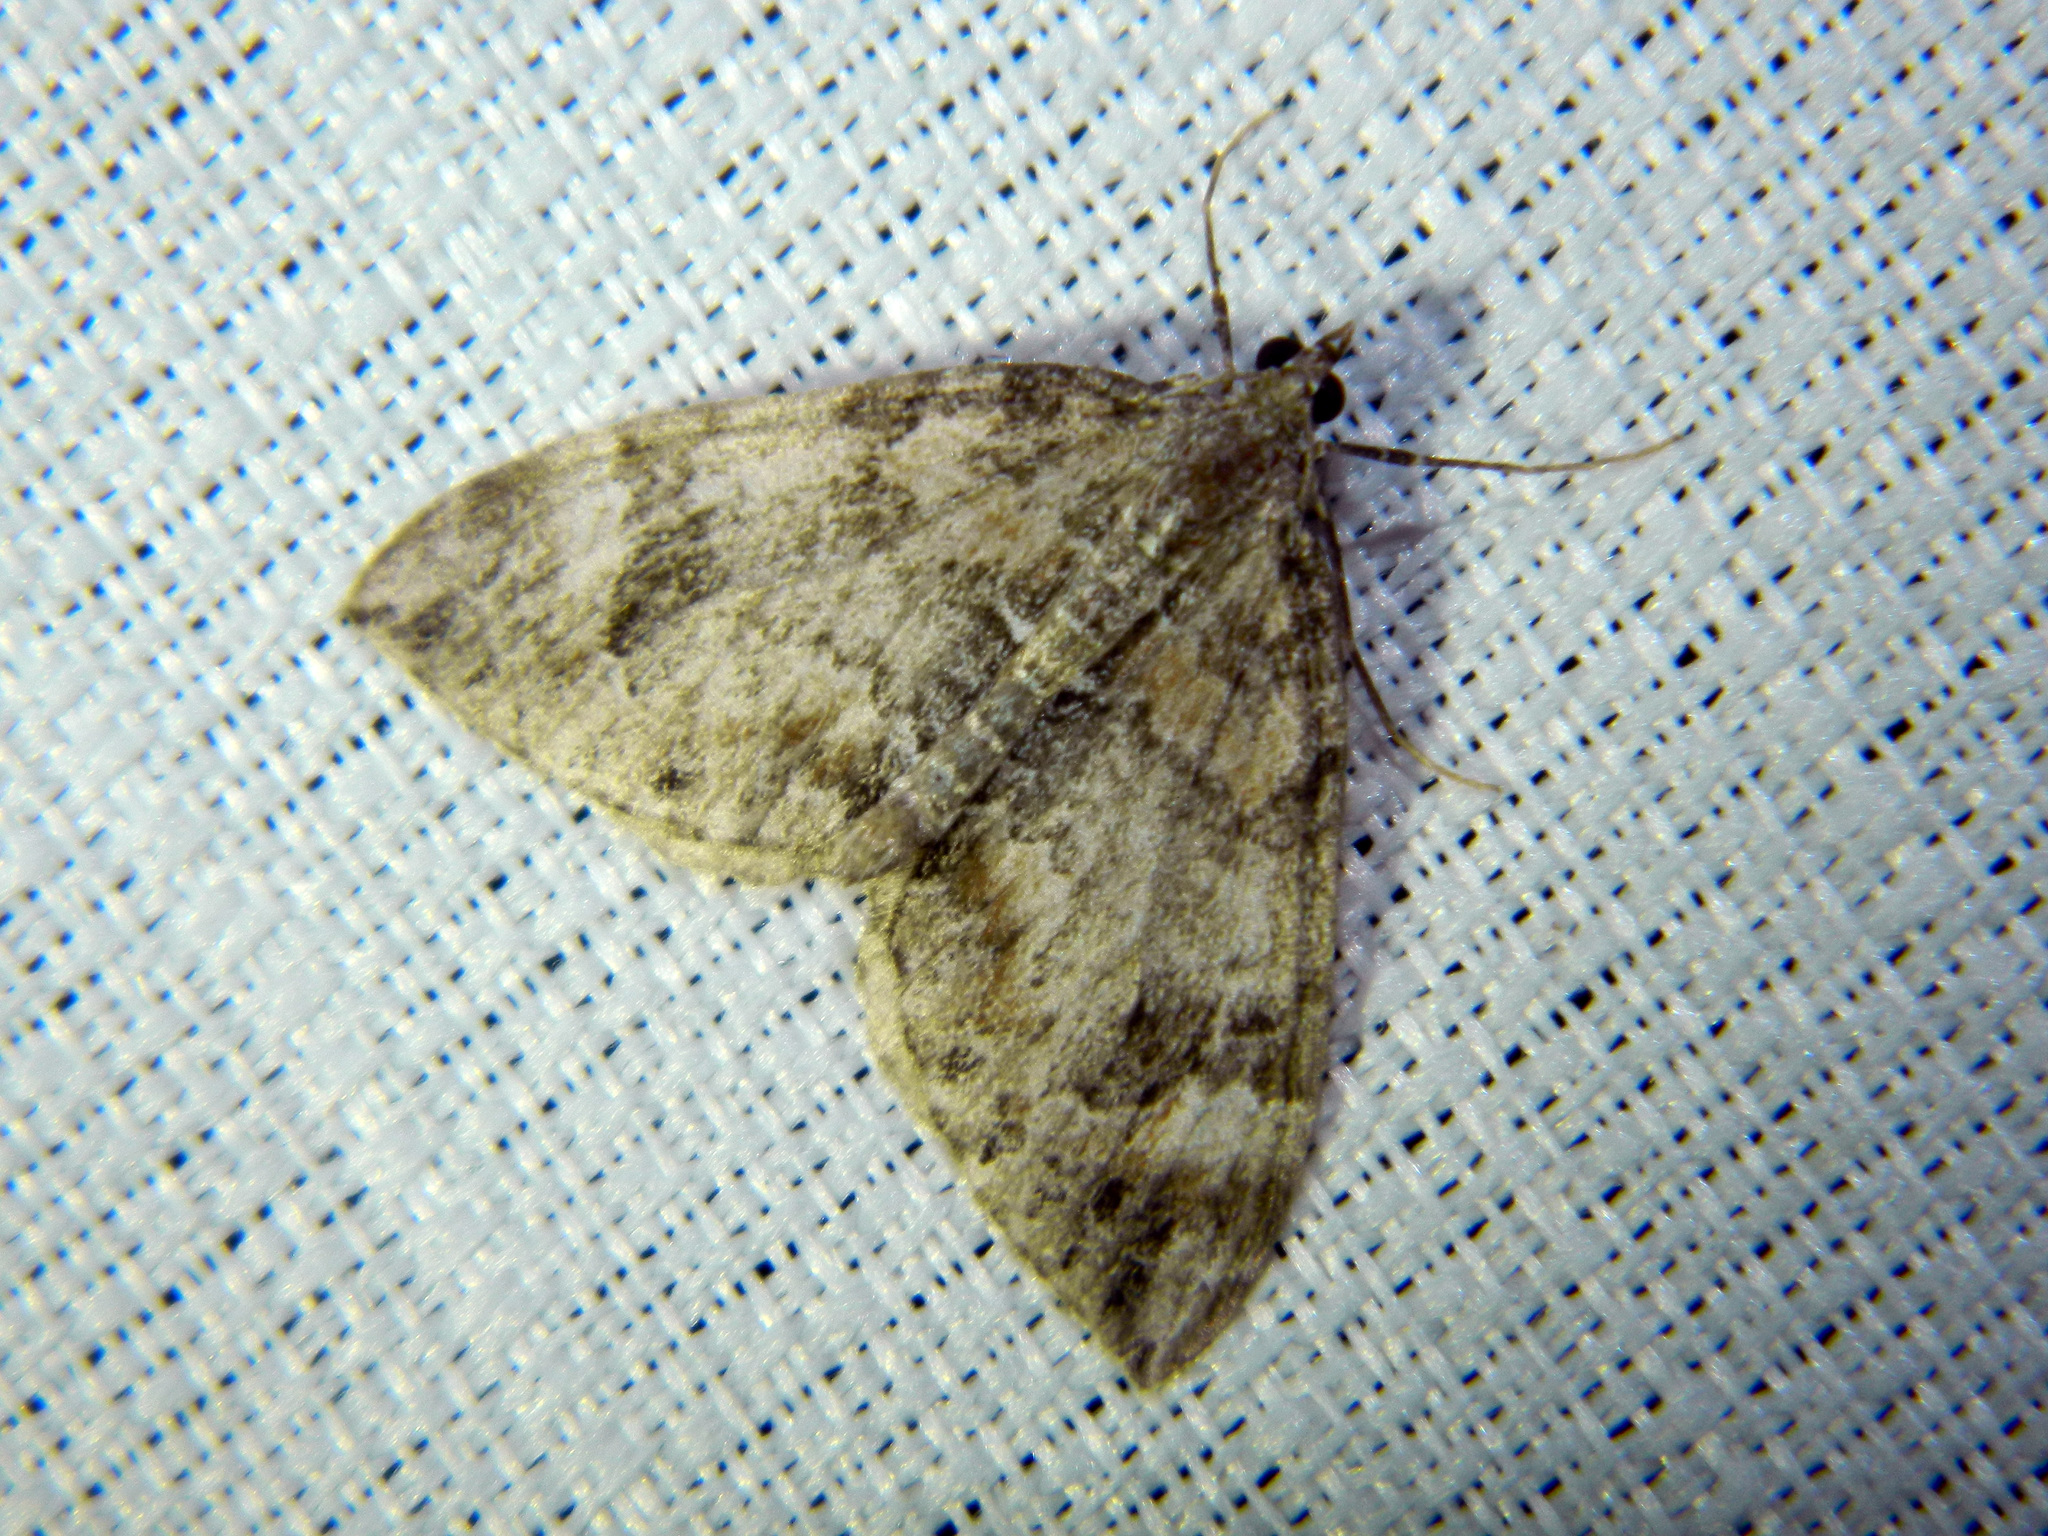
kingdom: Animalia
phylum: Arthropoda
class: Insecta
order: Lepidoptera
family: Geometridae
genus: Dysstroma
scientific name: Dysstroma citrata
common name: Dark marbled carpet
